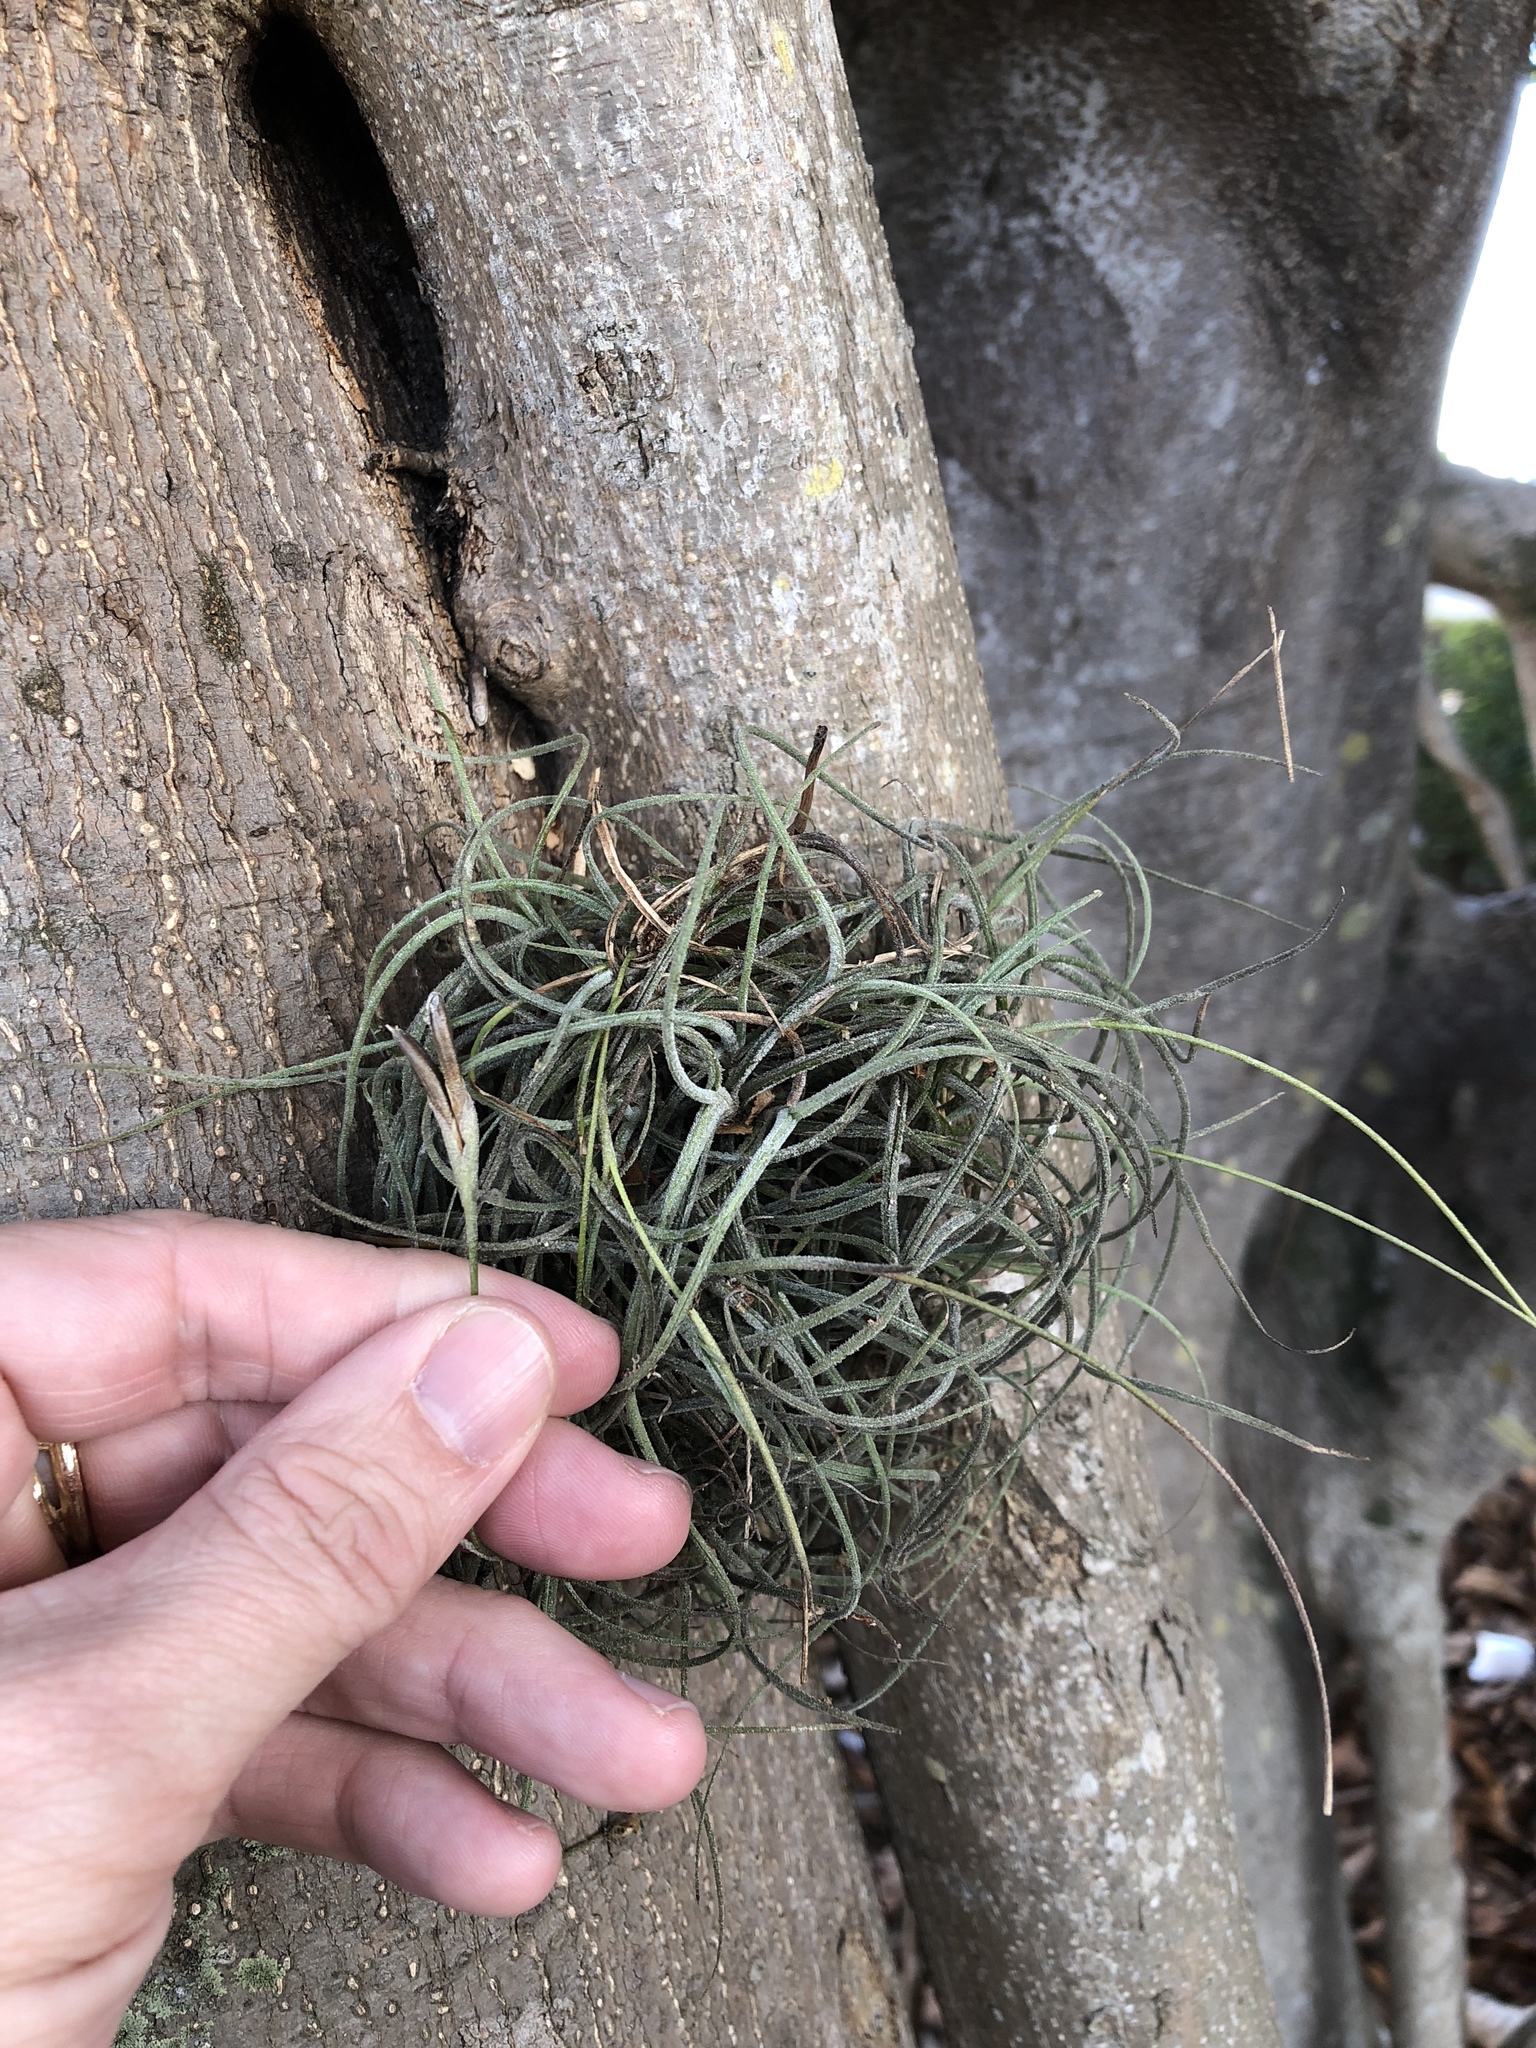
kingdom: Plantae
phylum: Tracheophyta
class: Liliopsida
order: Poales
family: Bromeliaceae
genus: Tillandsia
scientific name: Tillandsia recurvata
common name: Small ballmoss
